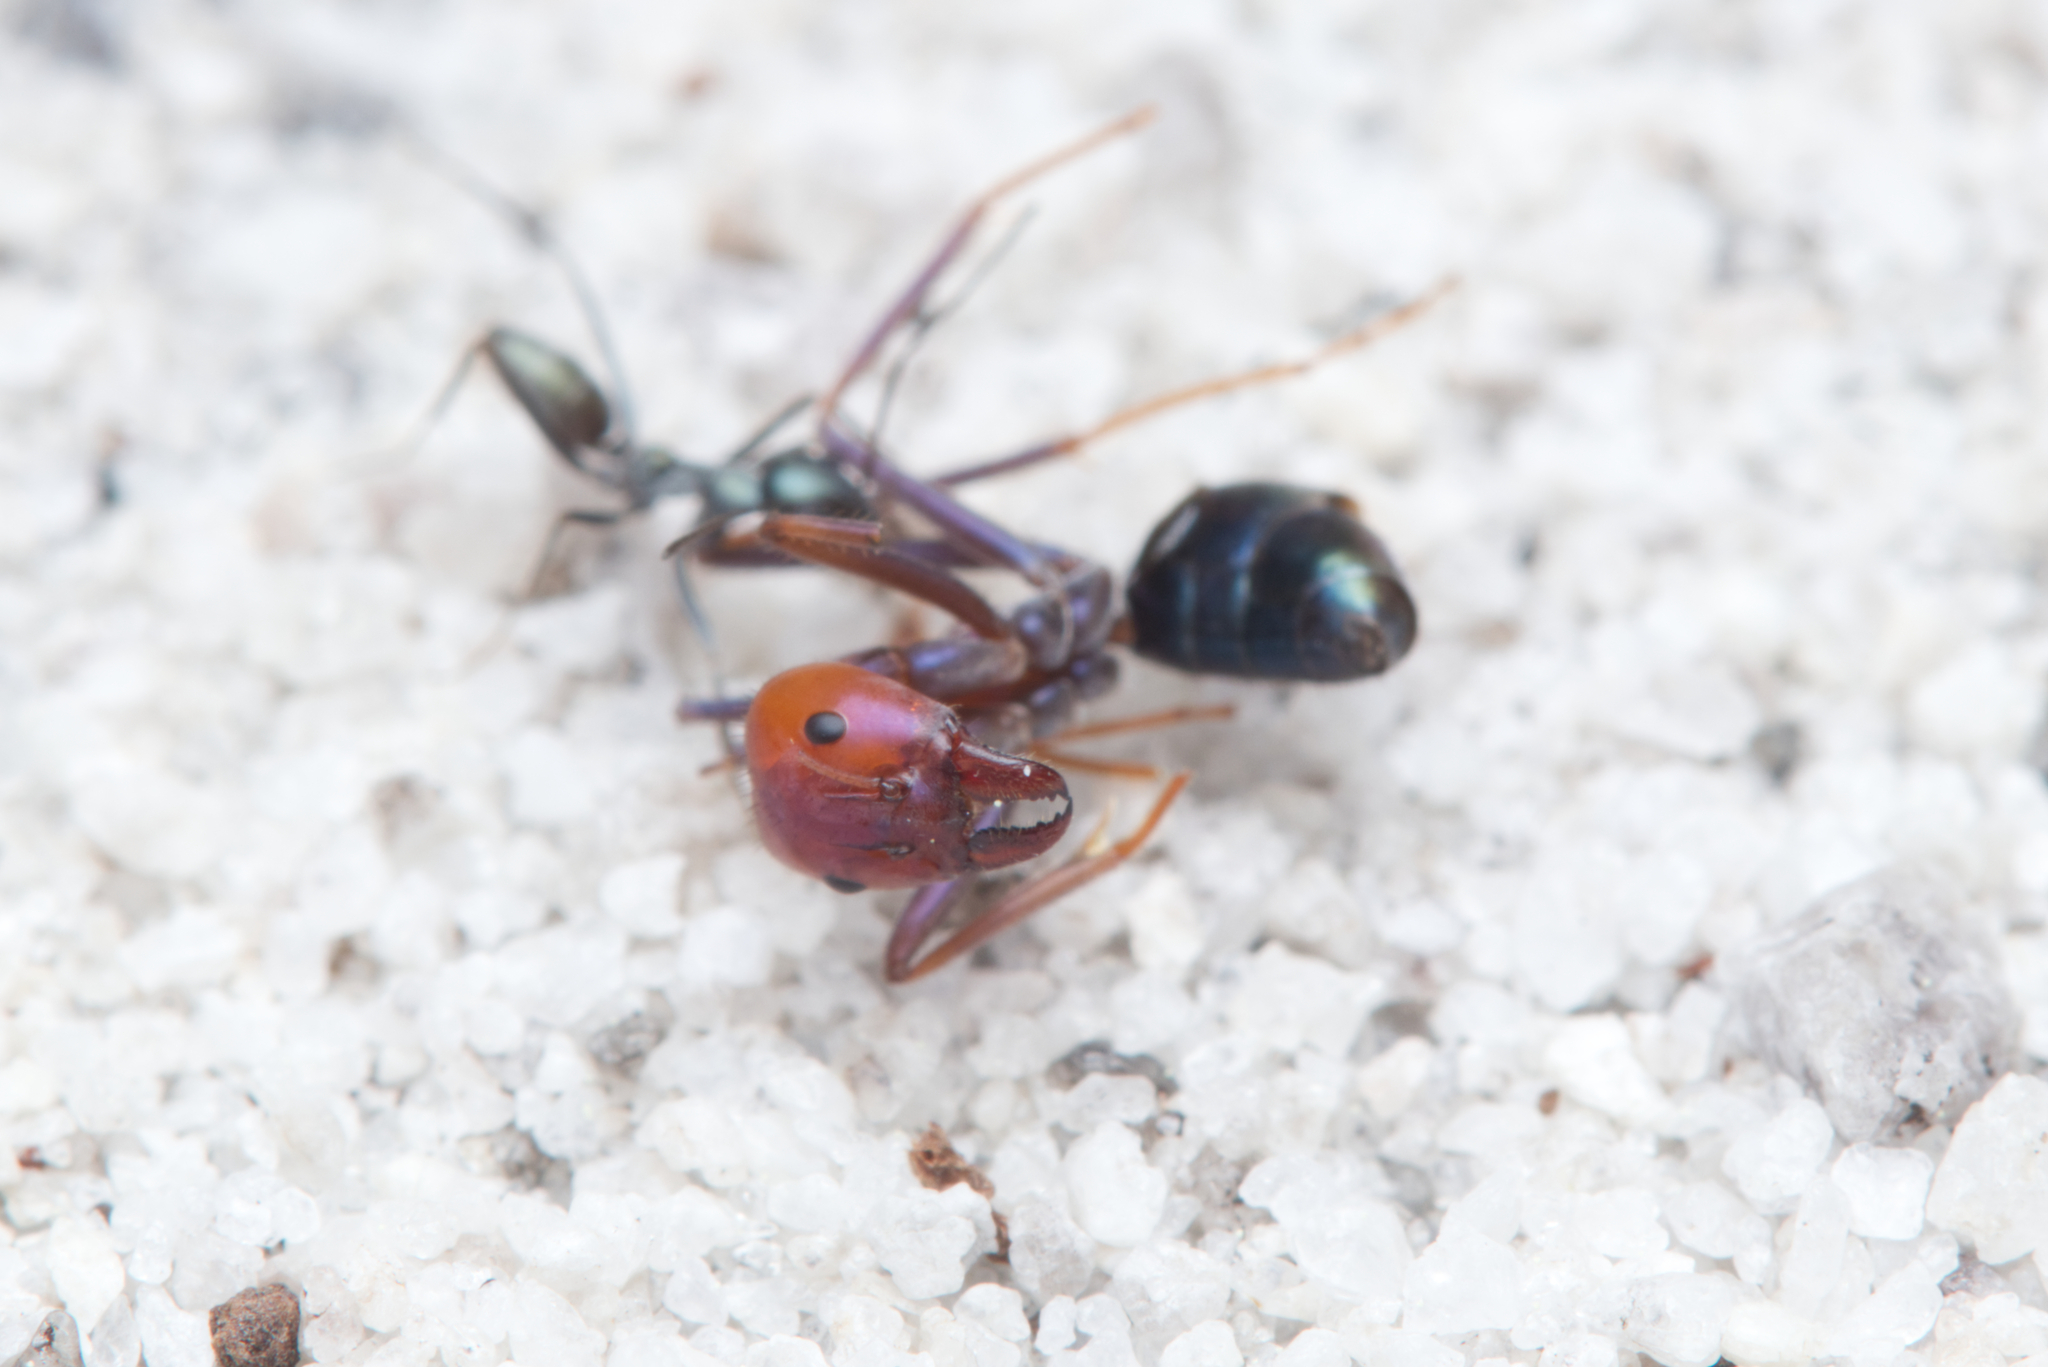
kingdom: Animalia
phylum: Arthropoda
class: Insecta
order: Hymenoptera
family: Formicidae
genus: Iridomyrmex
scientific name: Iridomyrmex purpureus
